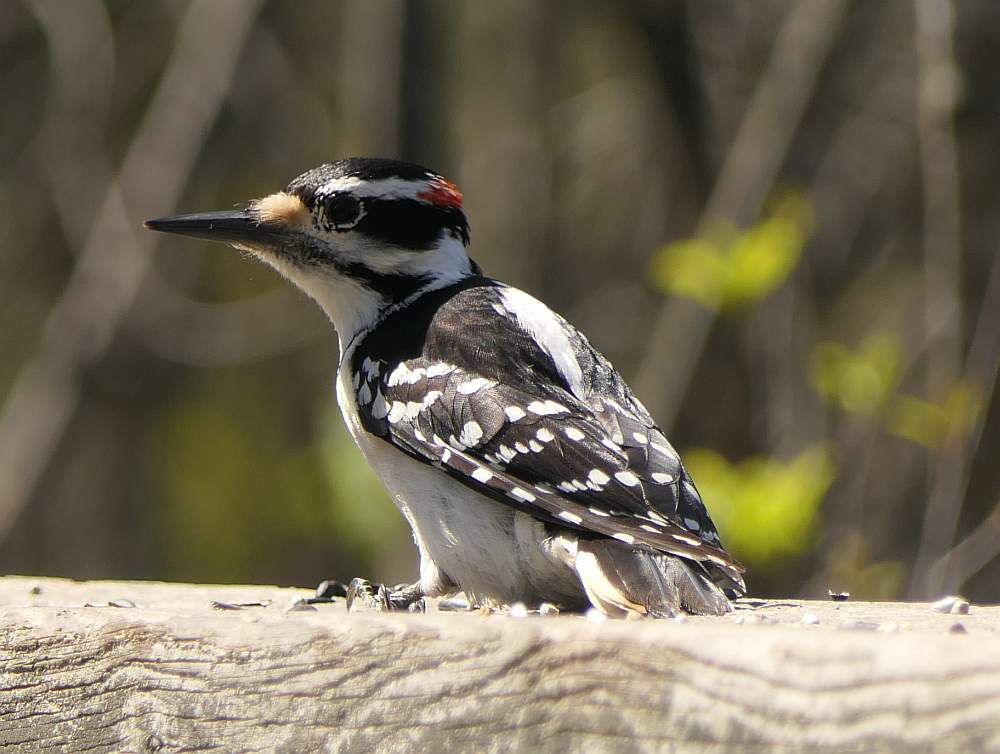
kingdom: Animalia
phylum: Chordata
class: Aves
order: Piciformes
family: Picidae
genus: Leuconotopicus
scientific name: Leuconotopicus villosus
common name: Hairy woodpecker
